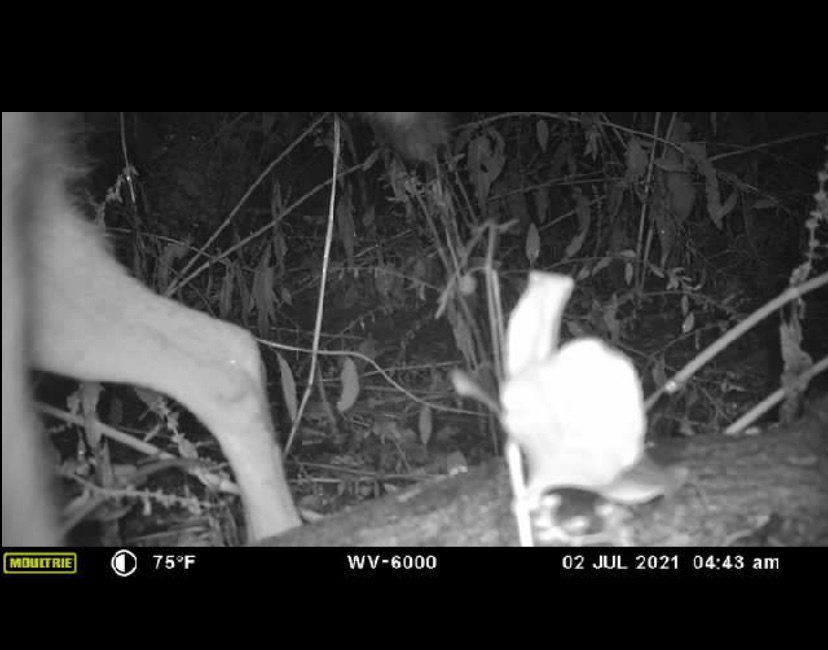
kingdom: Animalia
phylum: Chordata
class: Mammalia
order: Artiodactyla
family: Cervidae
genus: Odocoileus
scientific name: Odocoileus virginianus
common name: White-tailed deer
